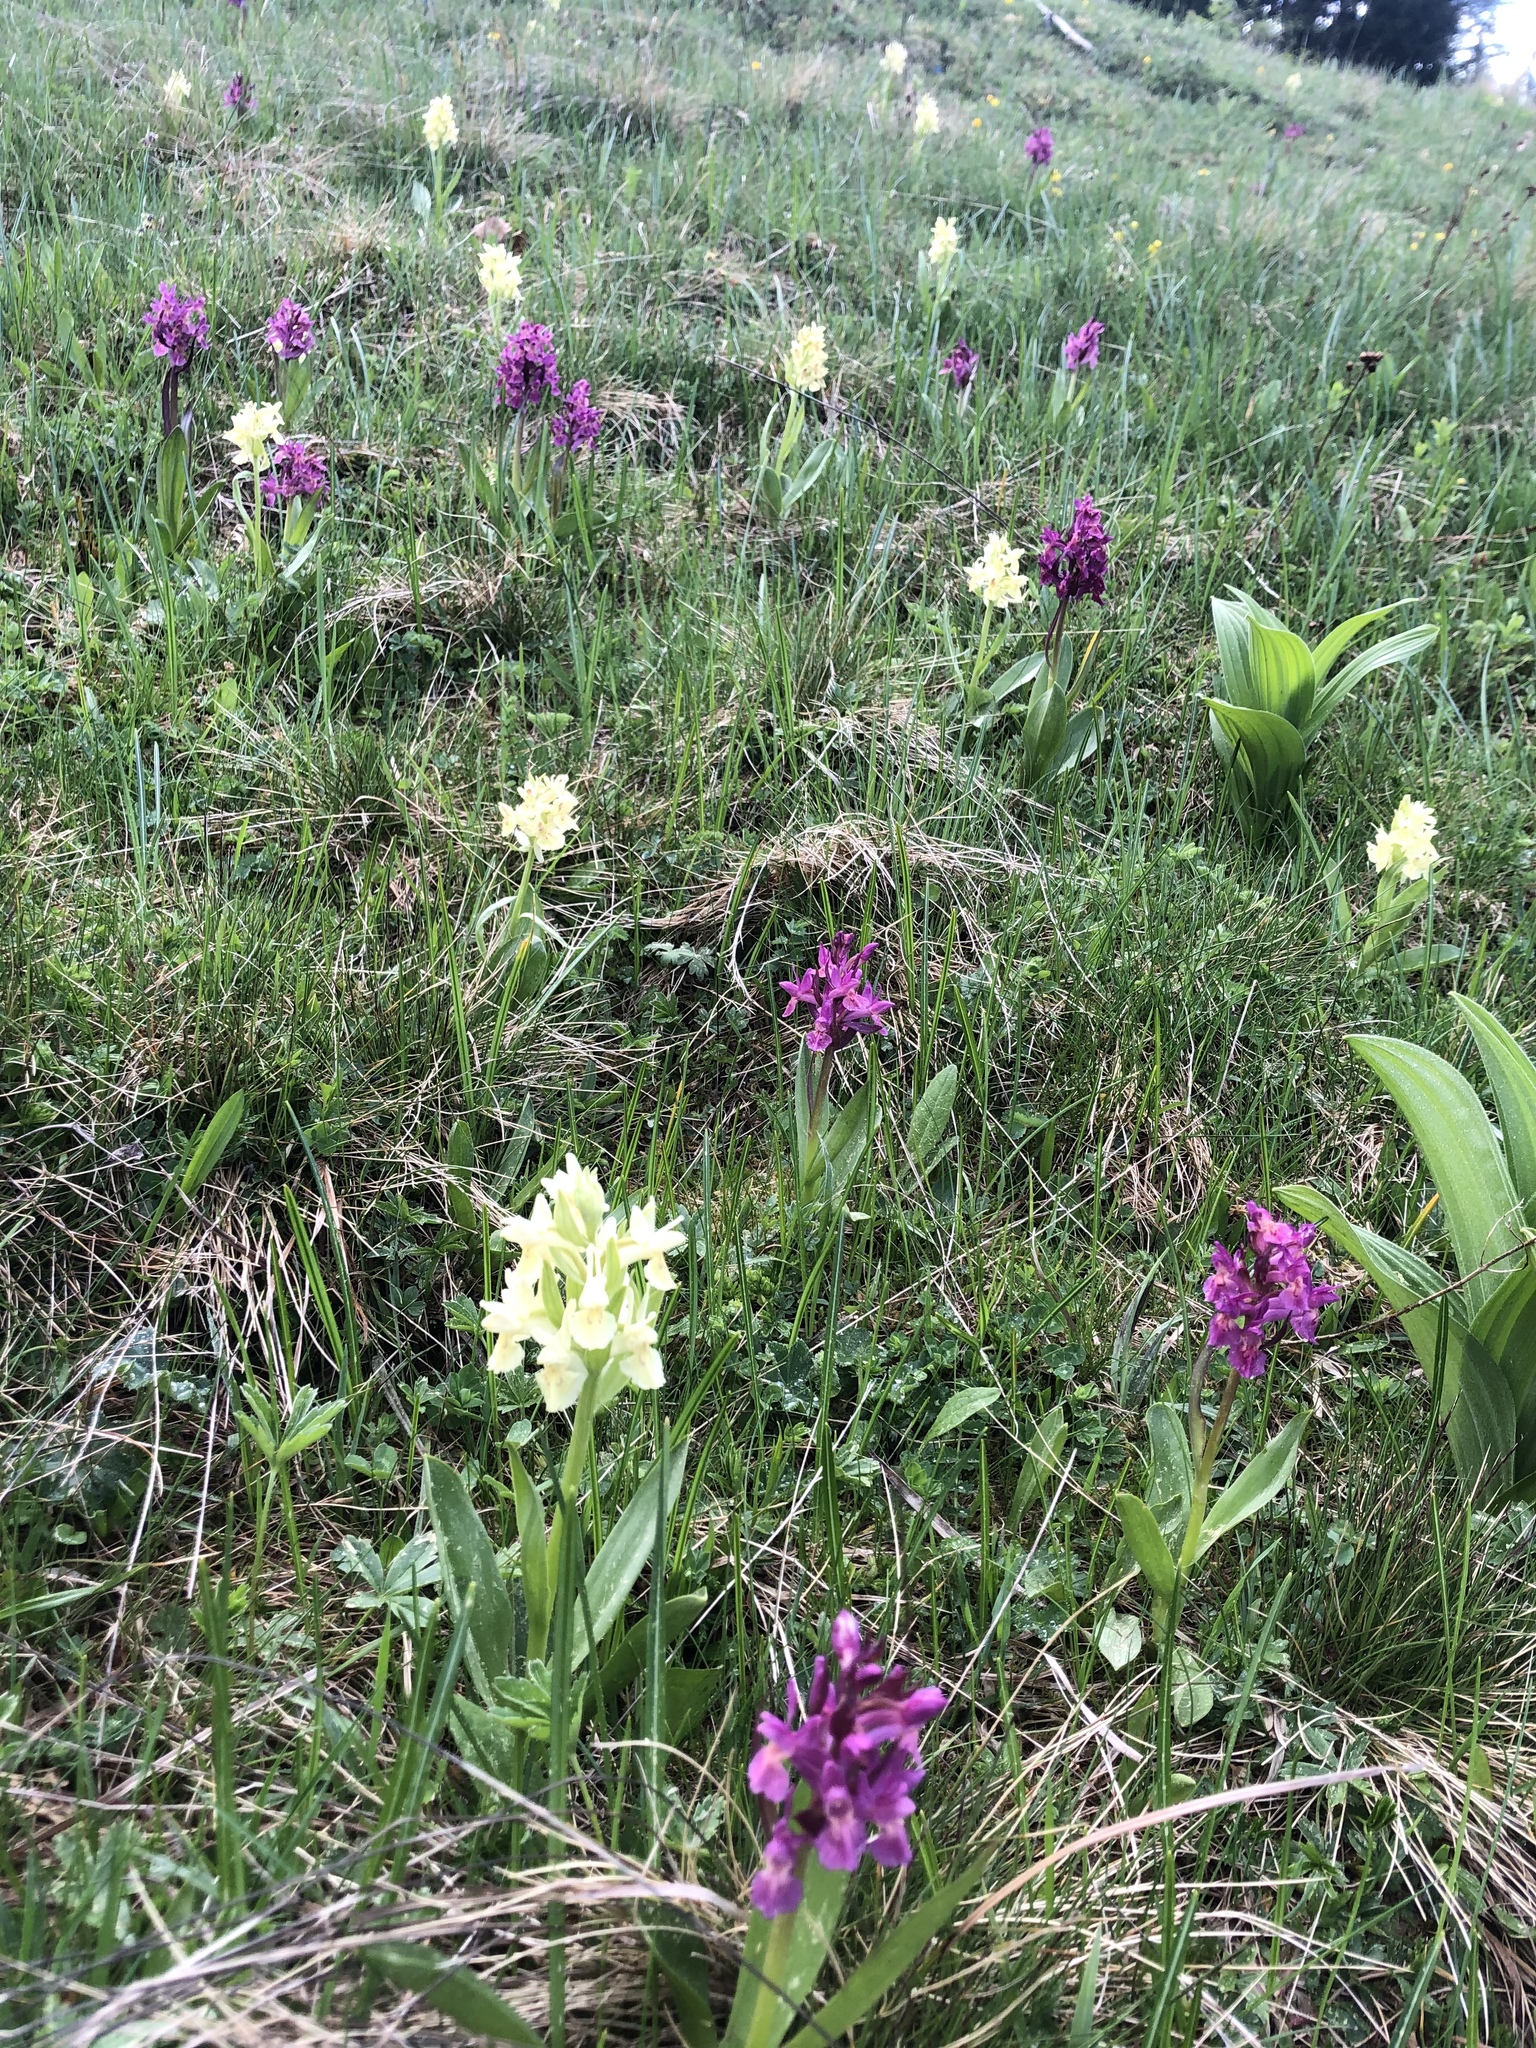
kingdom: Plantae
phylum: Tracheophyta
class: Liliopsida
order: Asparagales
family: Orchidaceae
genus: Dactylorhiza
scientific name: Dactylorhiza sambucina
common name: Elder-flowered orchid
